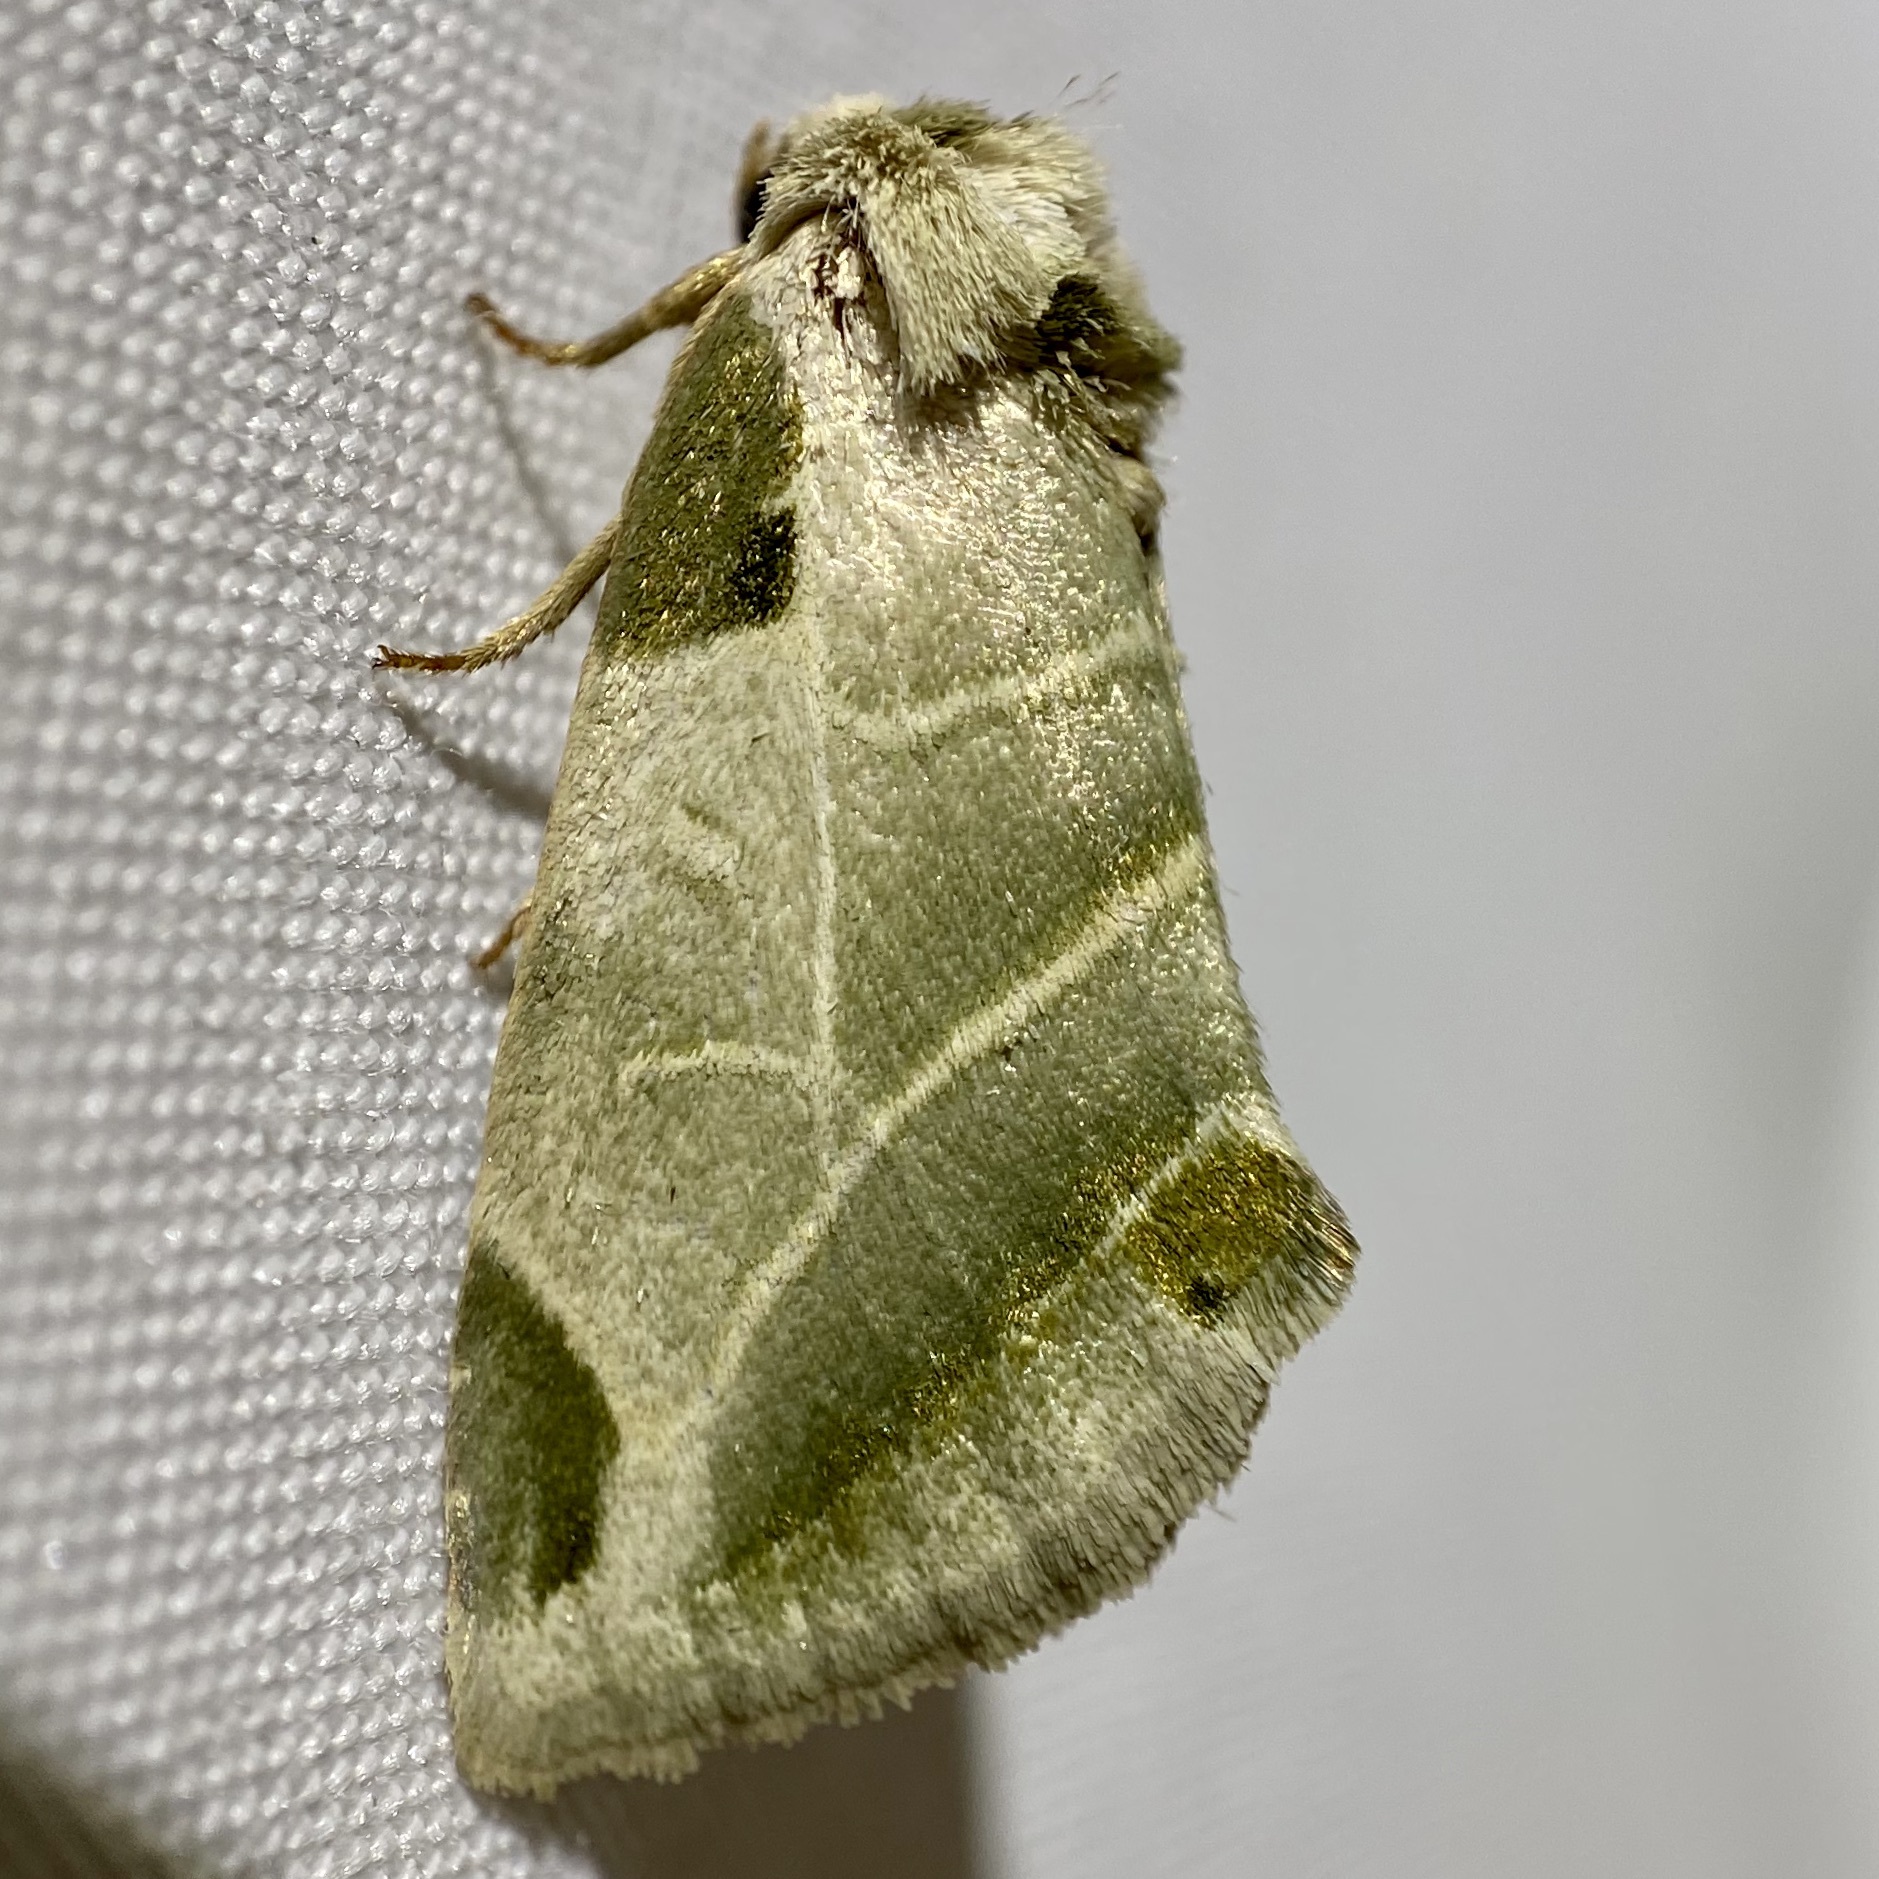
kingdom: Animalia
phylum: Arthropoda
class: Insecta
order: Lepidoptera
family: Noctuidae
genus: Heminocloa
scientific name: Heminocloa mirabilis
